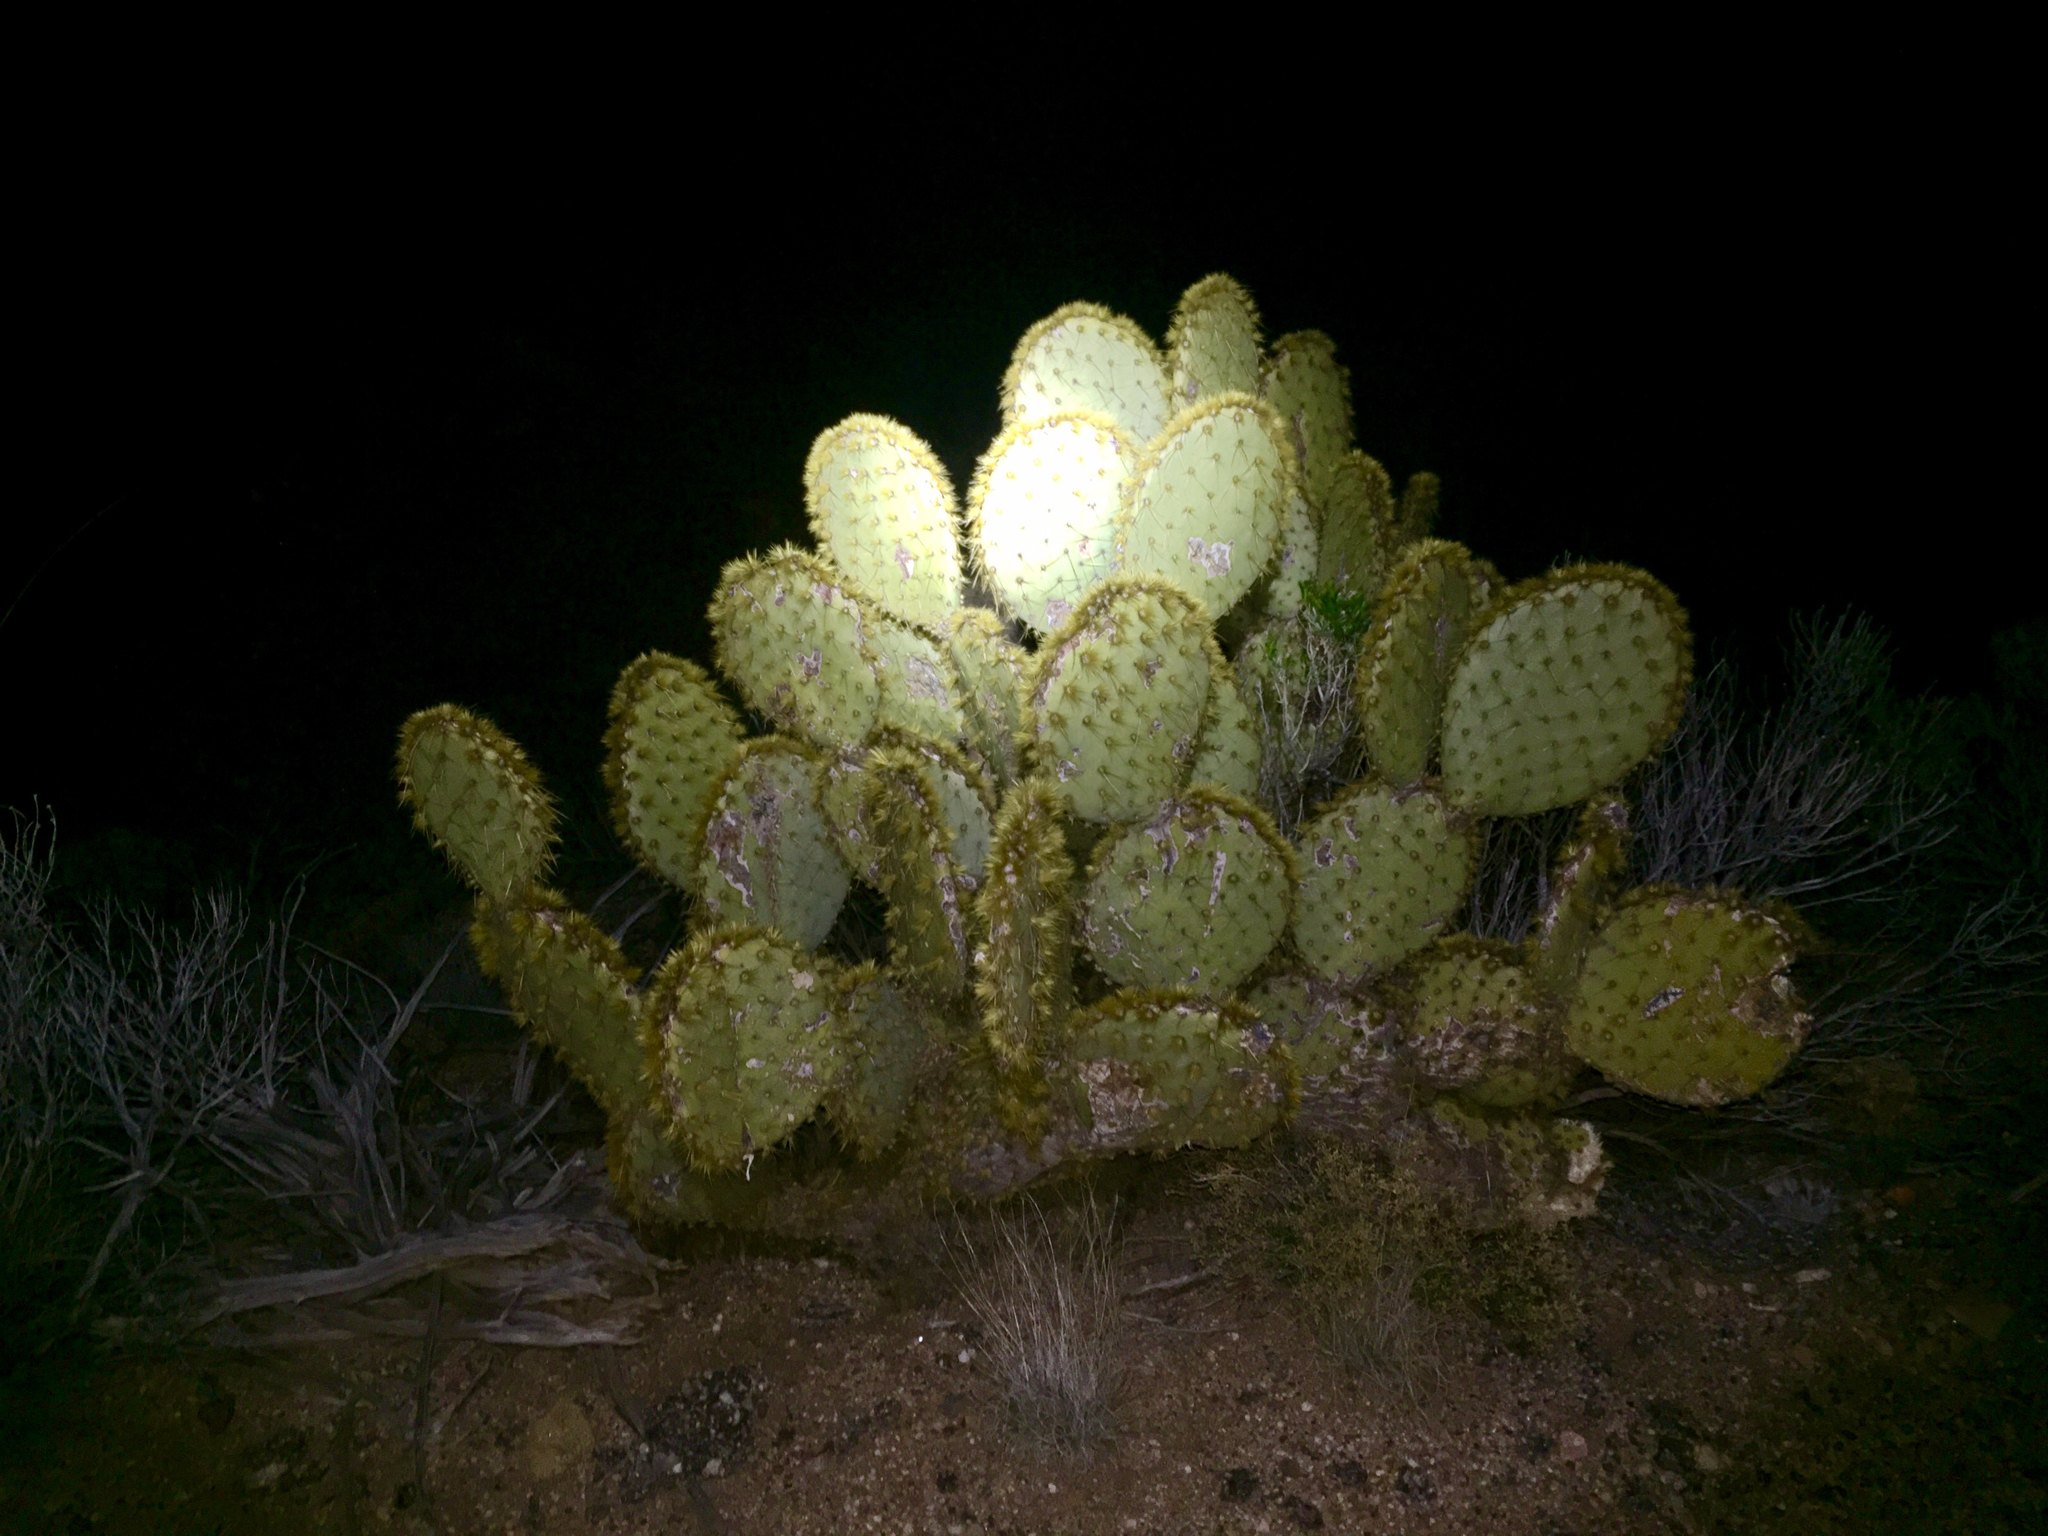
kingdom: Plantae
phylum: Tracheophyta
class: Magnoliopsida
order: Caryophyllales
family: Cactaceae
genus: Opuntia
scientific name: Opuntia chlorotica
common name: Dollar-joint prickly-pear
